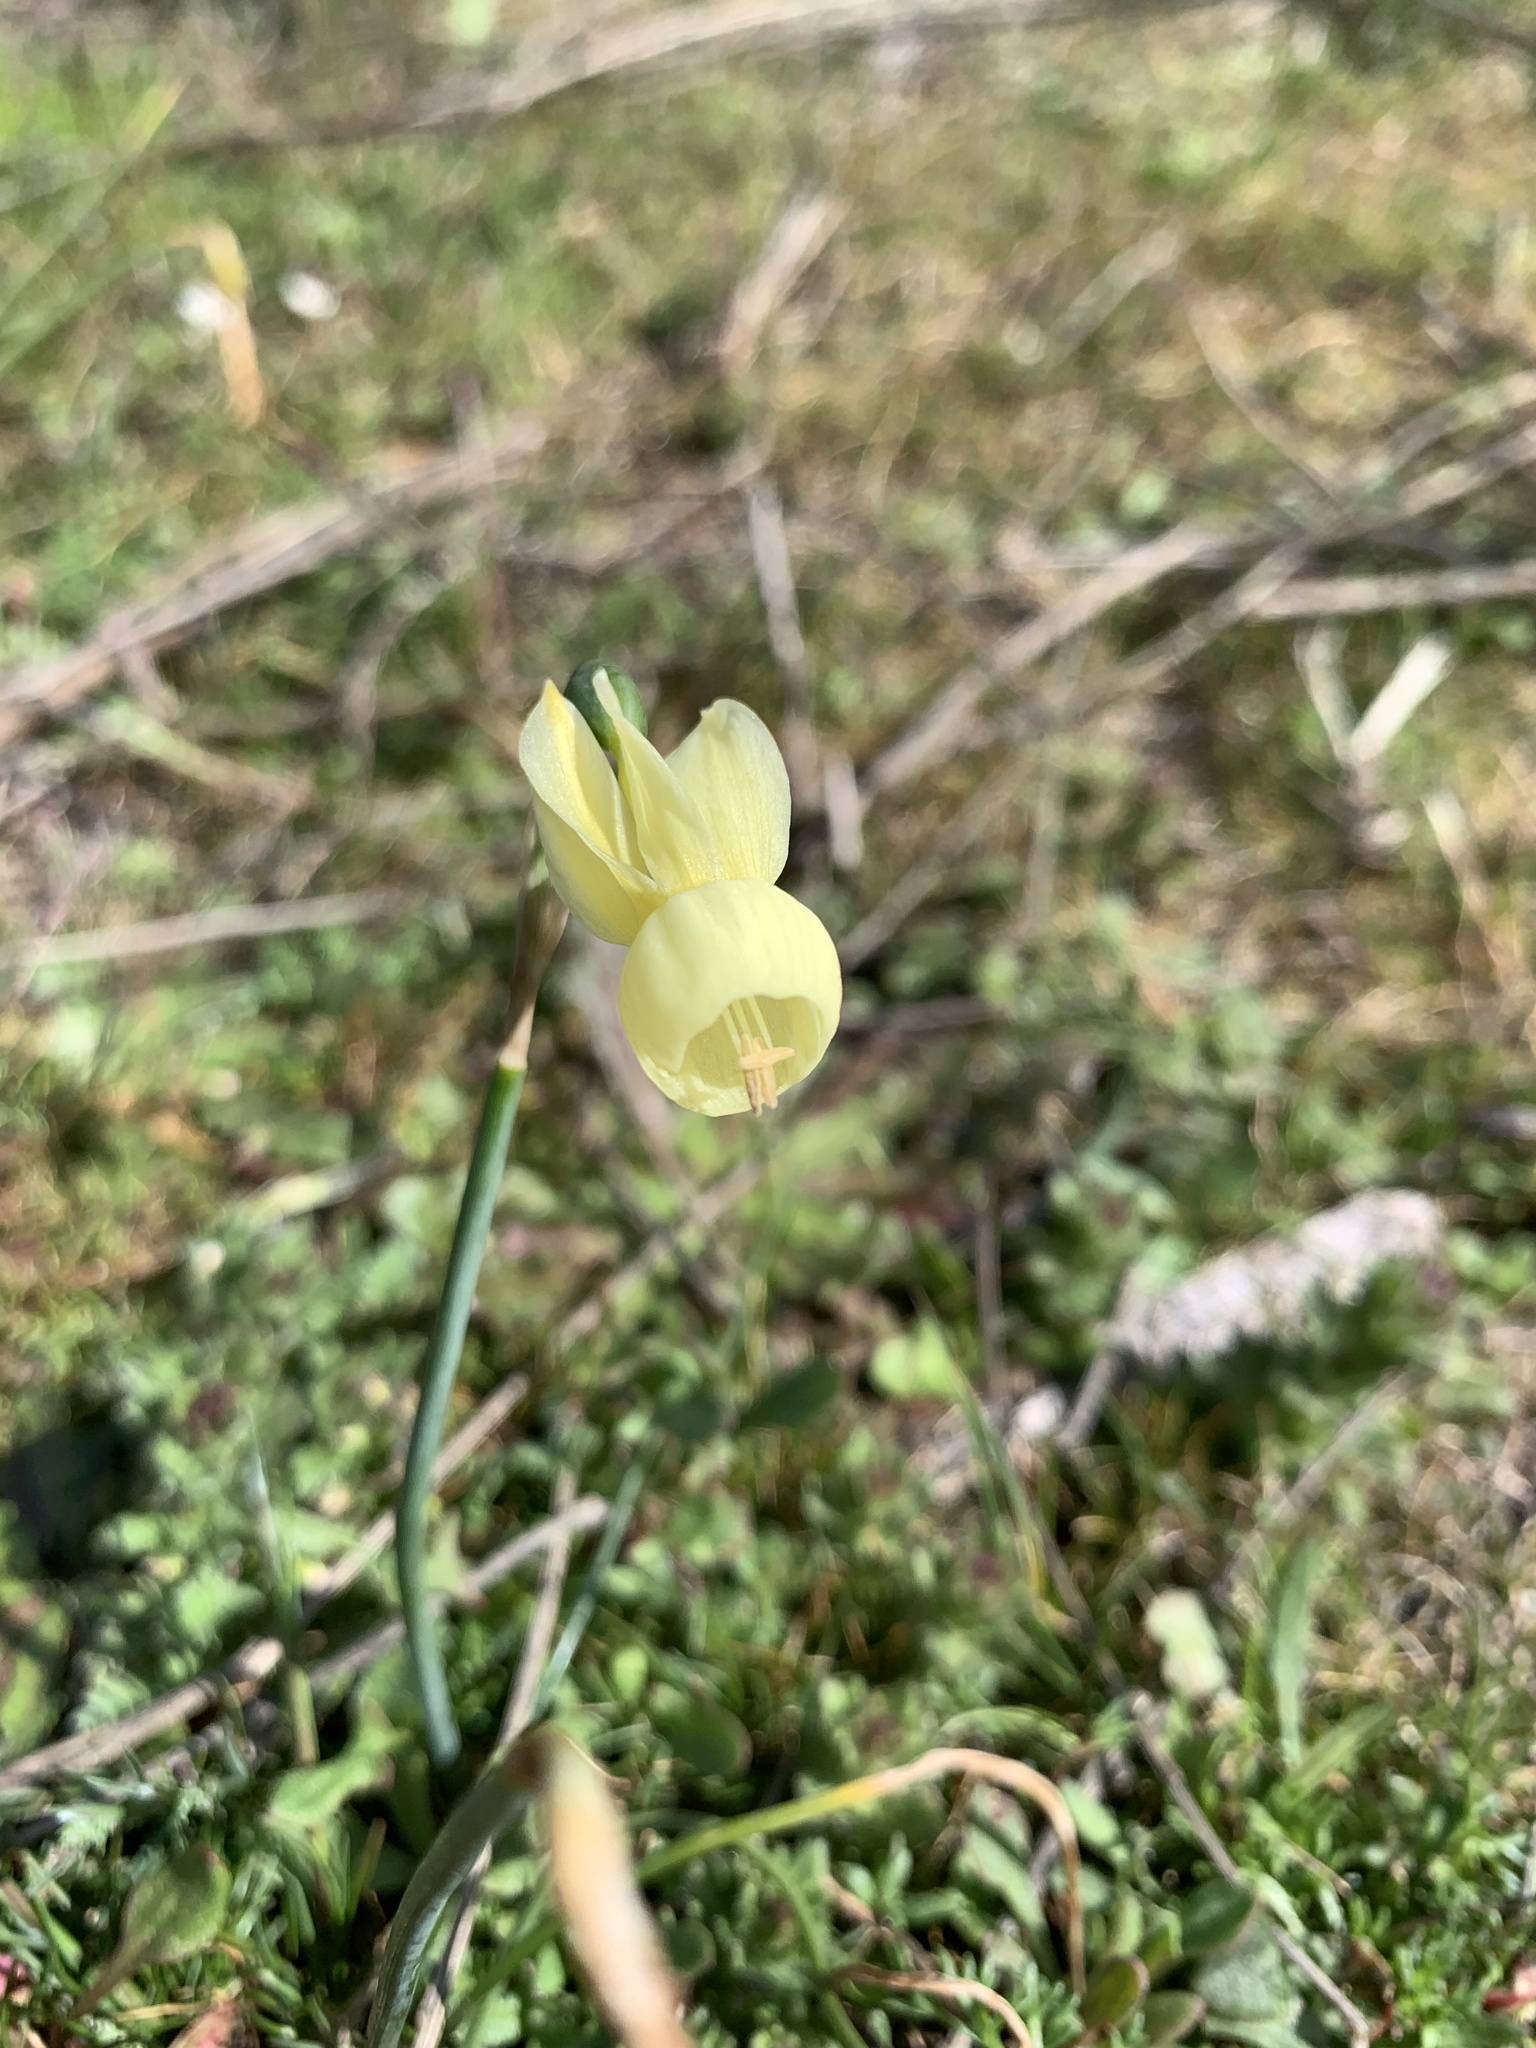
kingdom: Plantae
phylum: Tracheophyta
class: Liliopsida
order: Asparagales
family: Amaryllidaceae
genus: Narcissus
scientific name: Narcissus triandrus
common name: Angel's-tears
